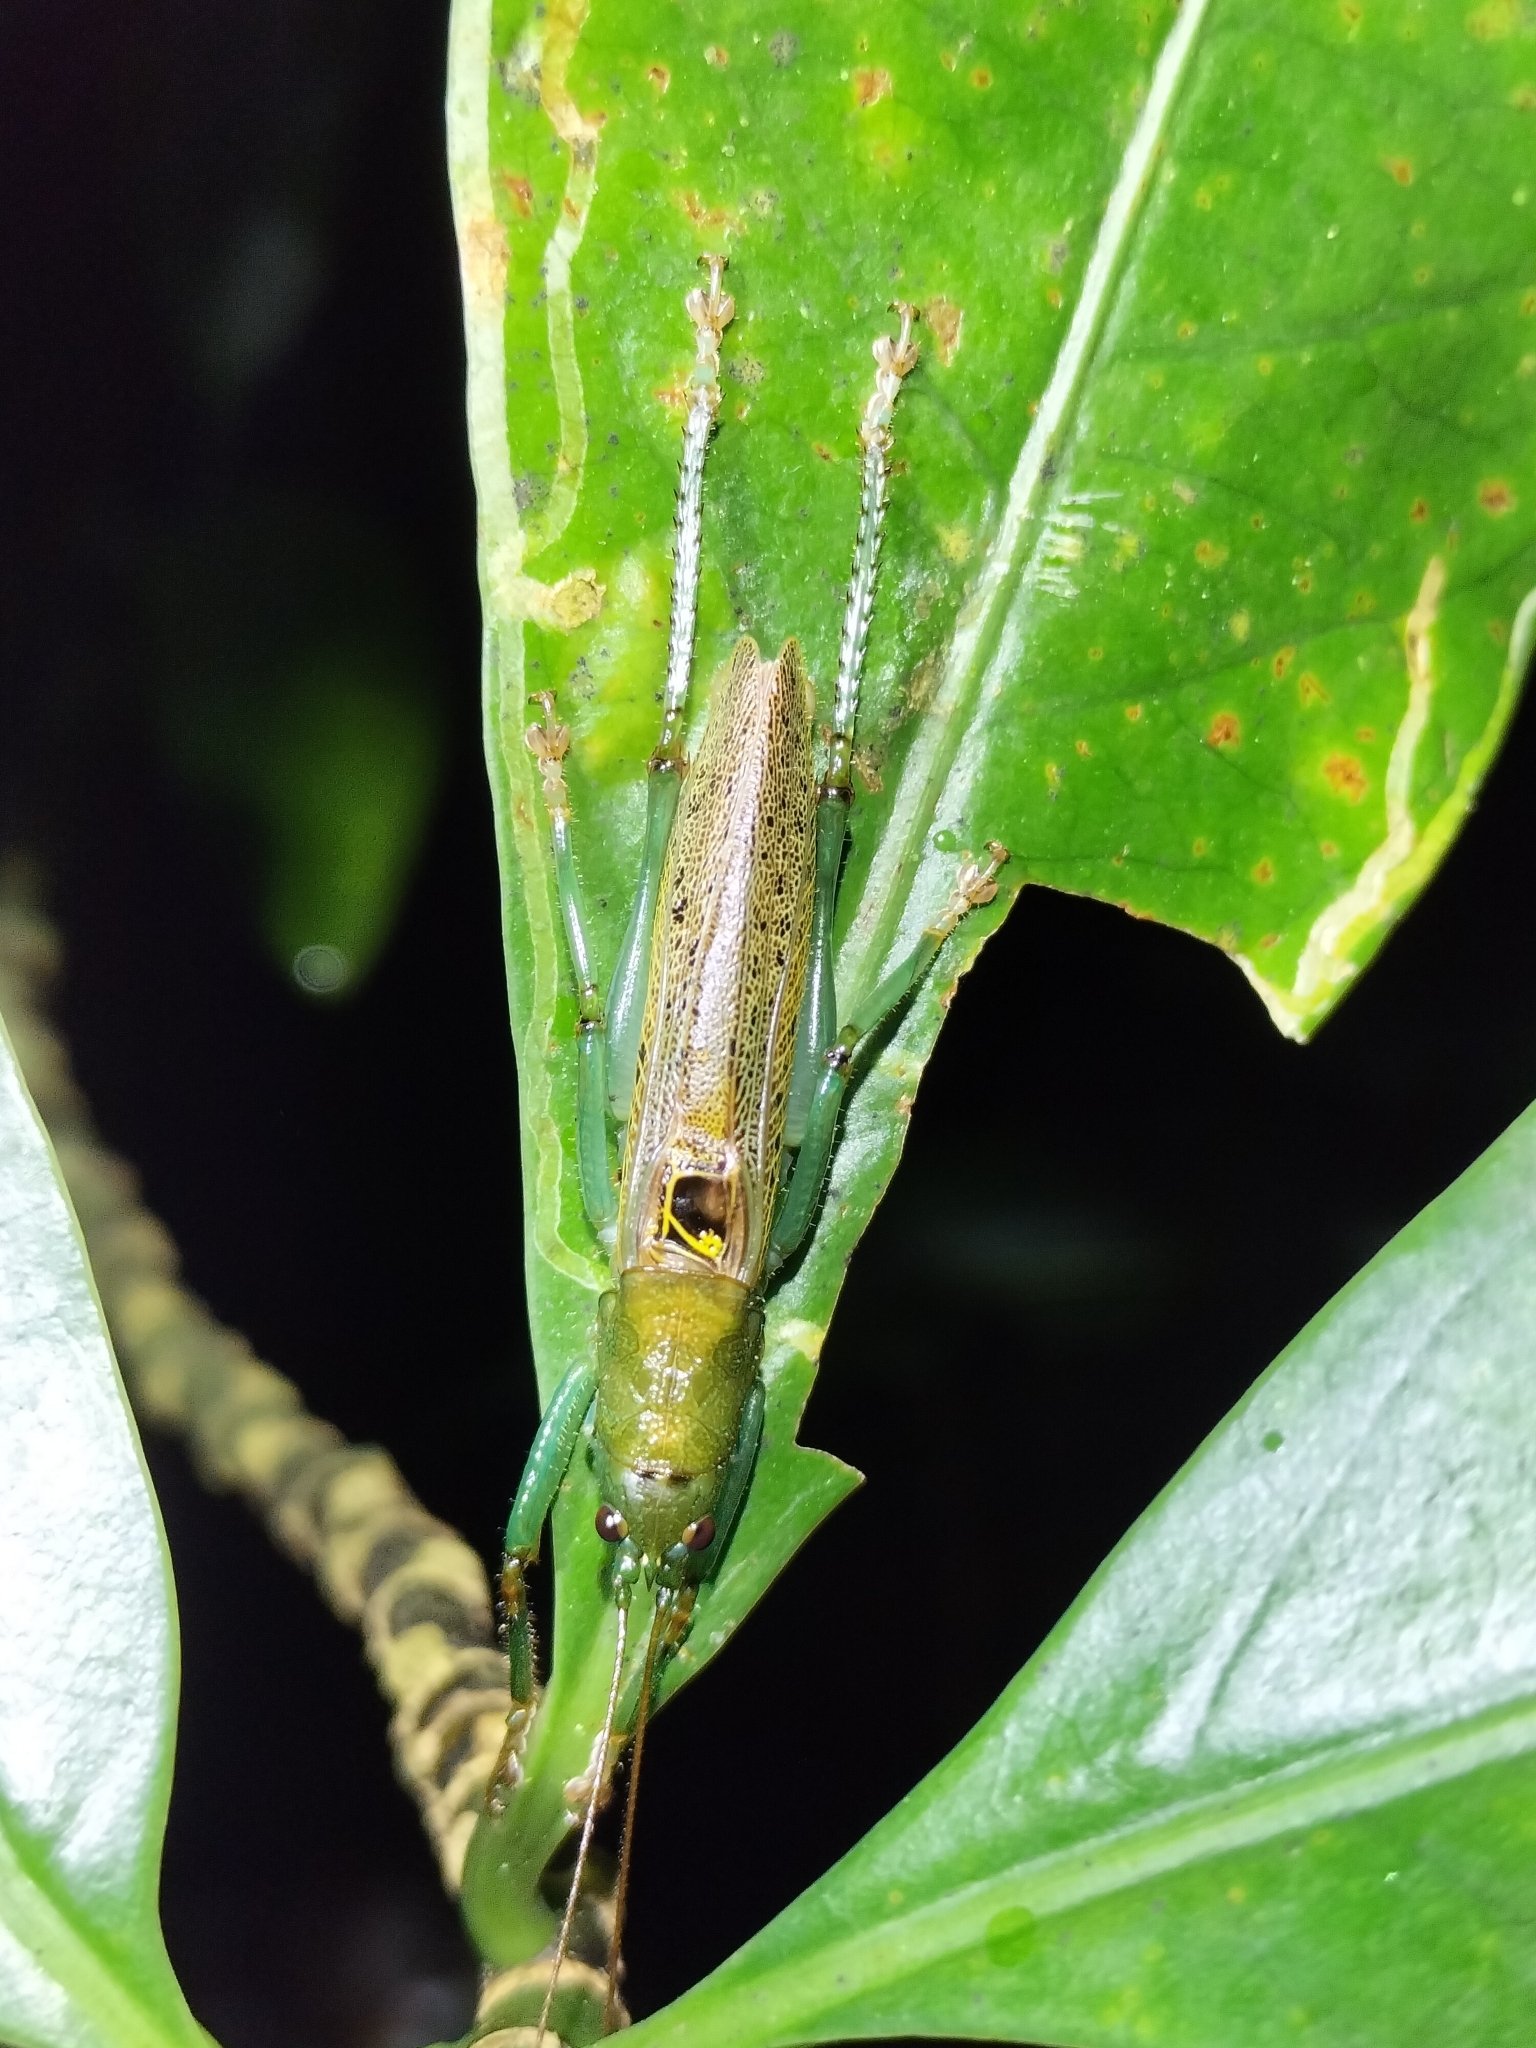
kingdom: Animalia
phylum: Arthropoda
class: Insecta
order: Orthoptera
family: Tettigoniidae
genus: Barbaragraecia
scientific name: Barbaragraecia unicorn
